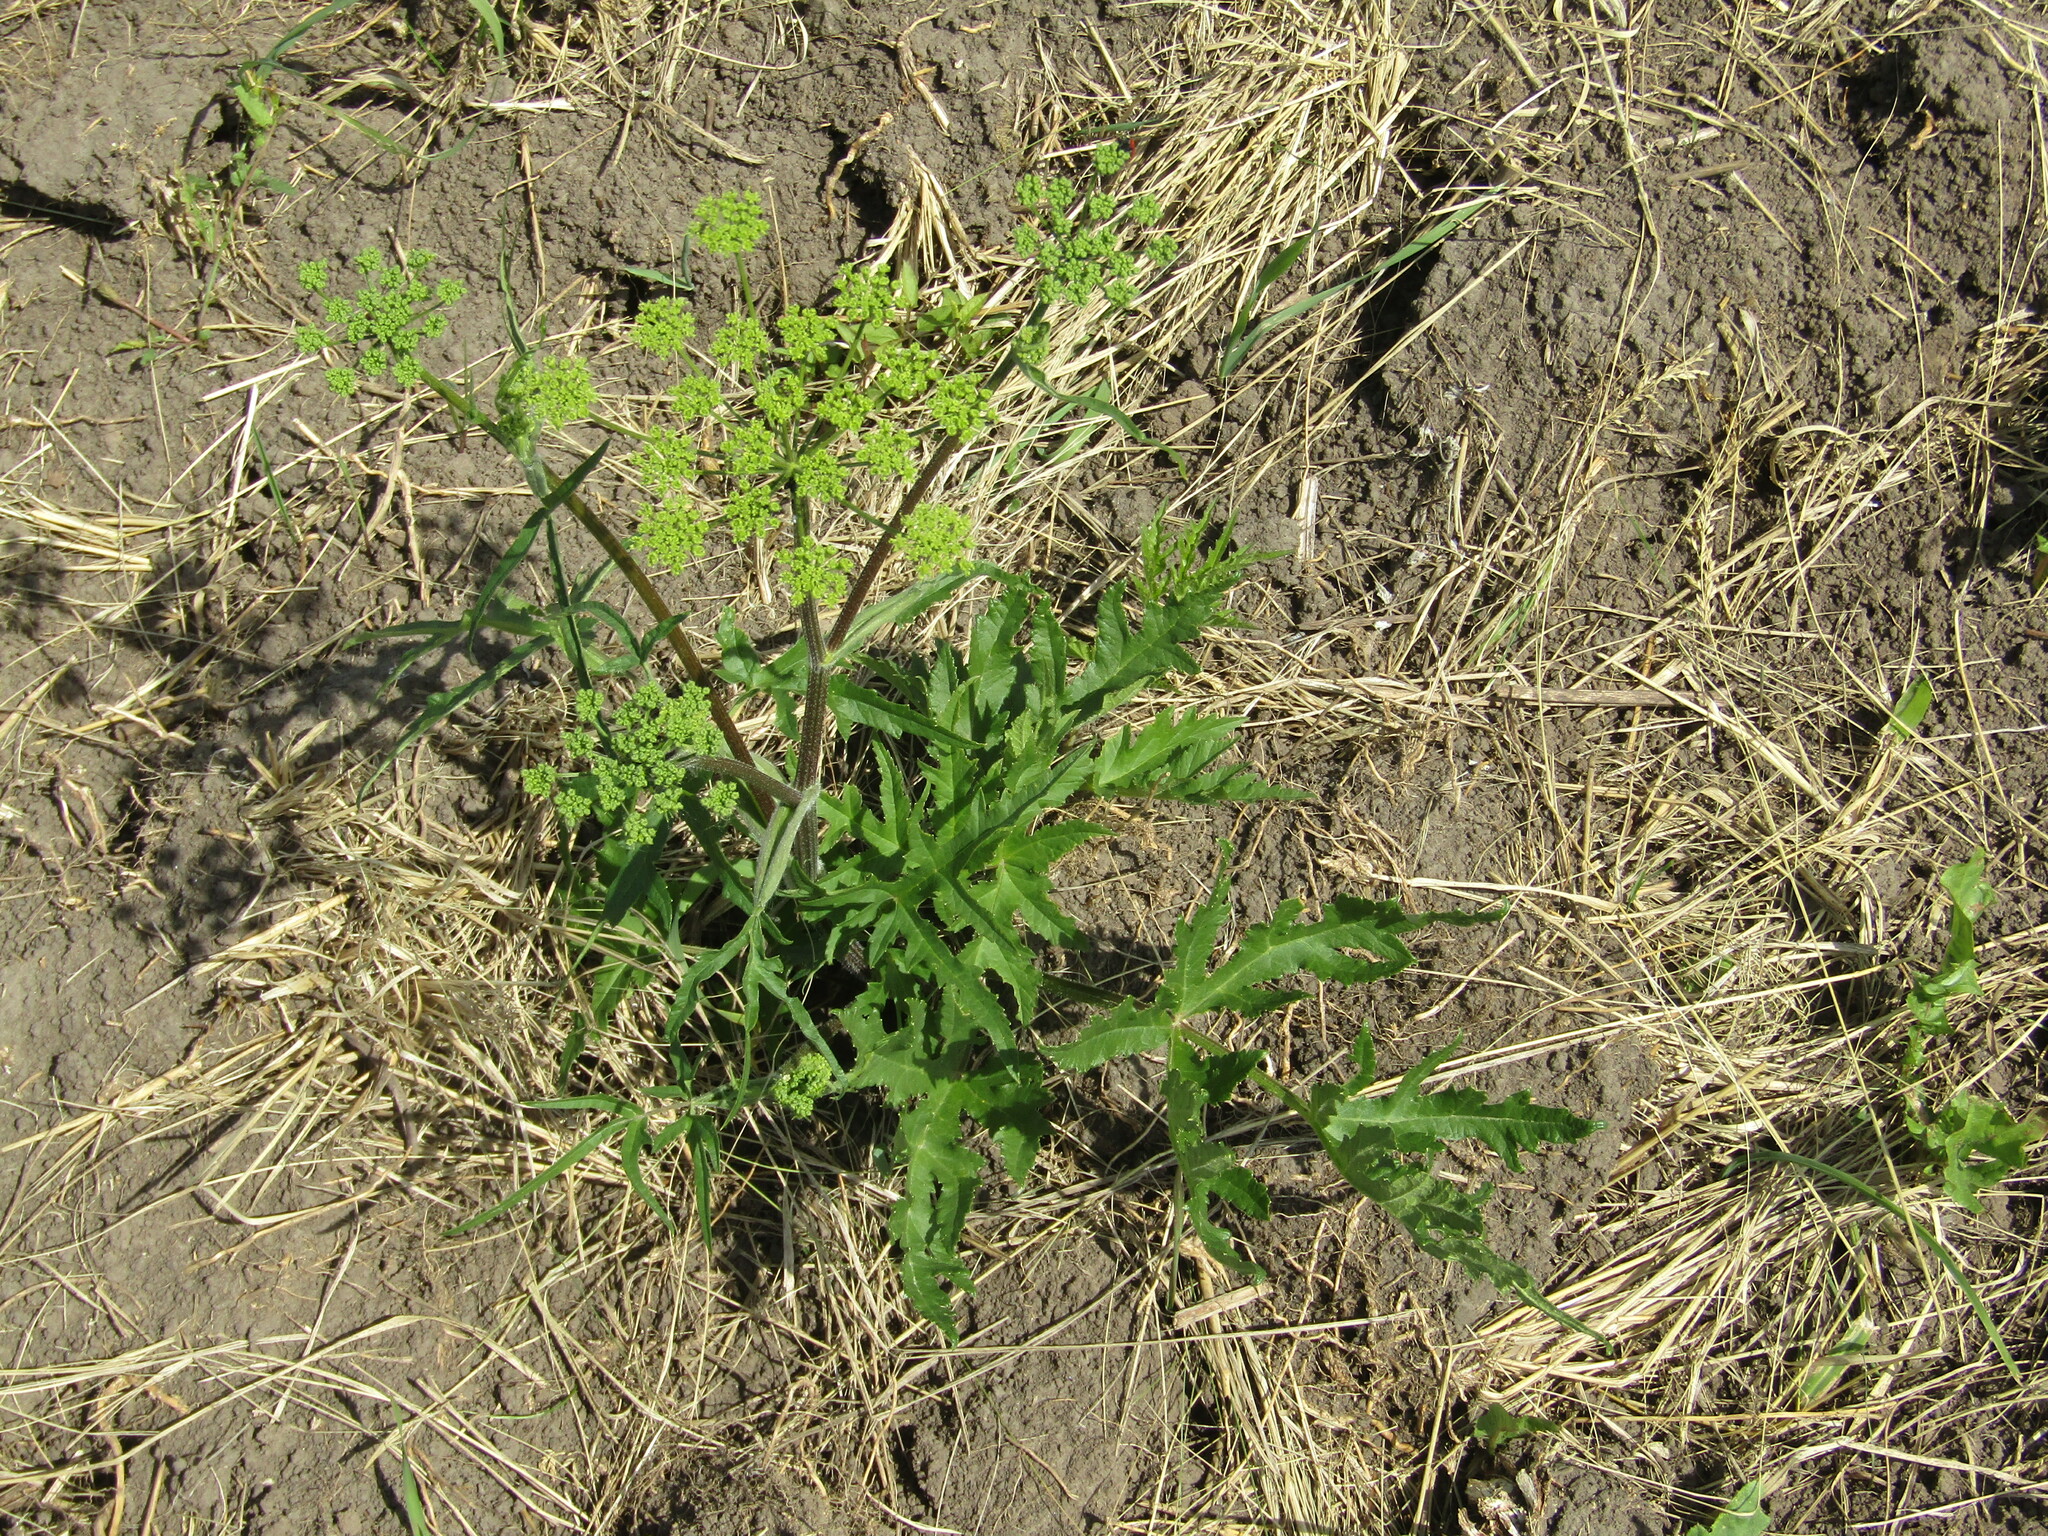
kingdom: Plantae
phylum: Tracheophyta
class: Magnoliopsida
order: Apiales
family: Apiaceae
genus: Heracleum
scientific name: Heracleum sphondylium
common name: Hogweed
